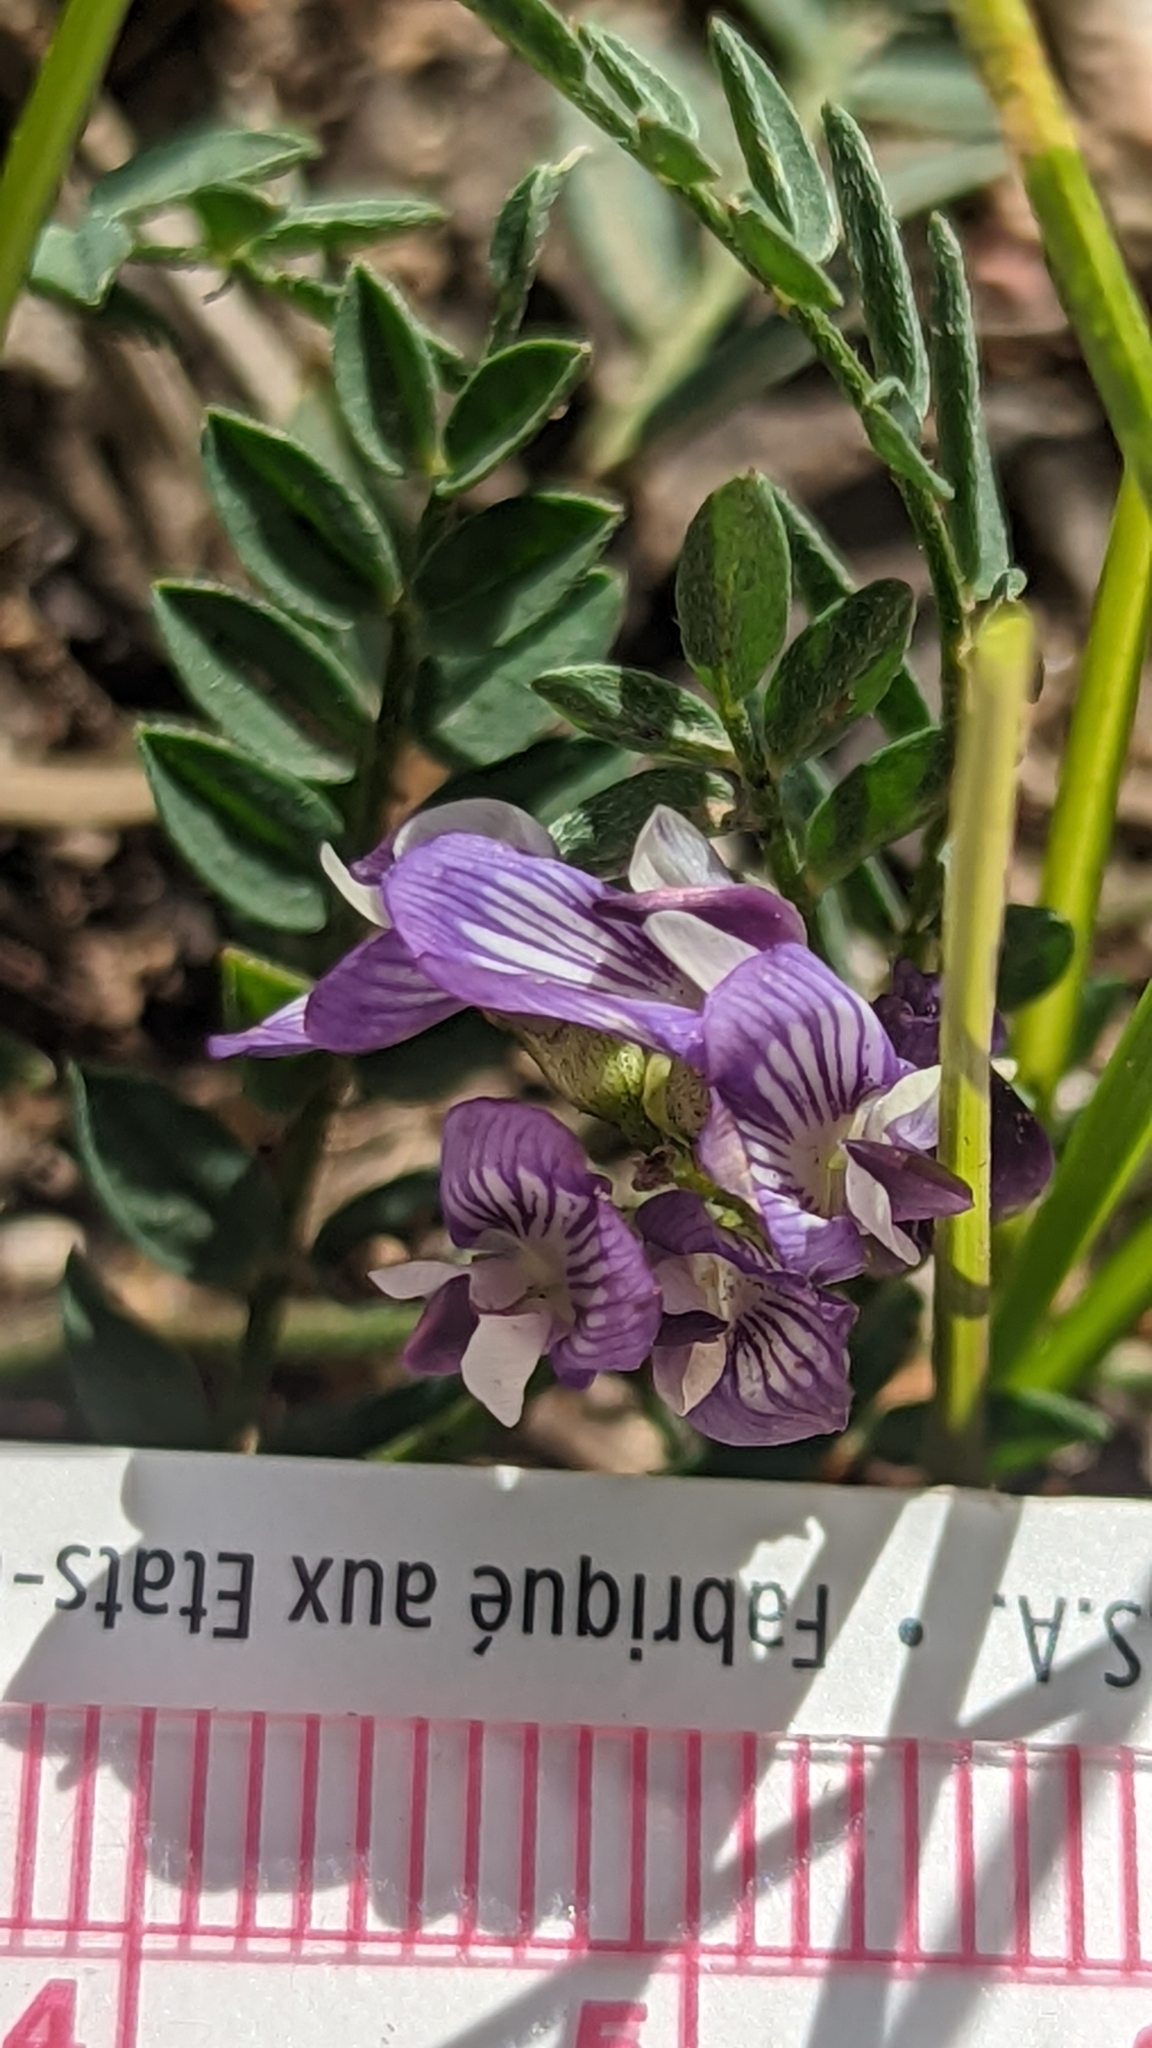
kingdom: Plantae
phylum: Tracheophyta
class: Magnoliopsida
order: Fabales
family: Fabaceae
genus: Astragalus
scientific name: Astragalus miser
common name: Timber milkvetch
